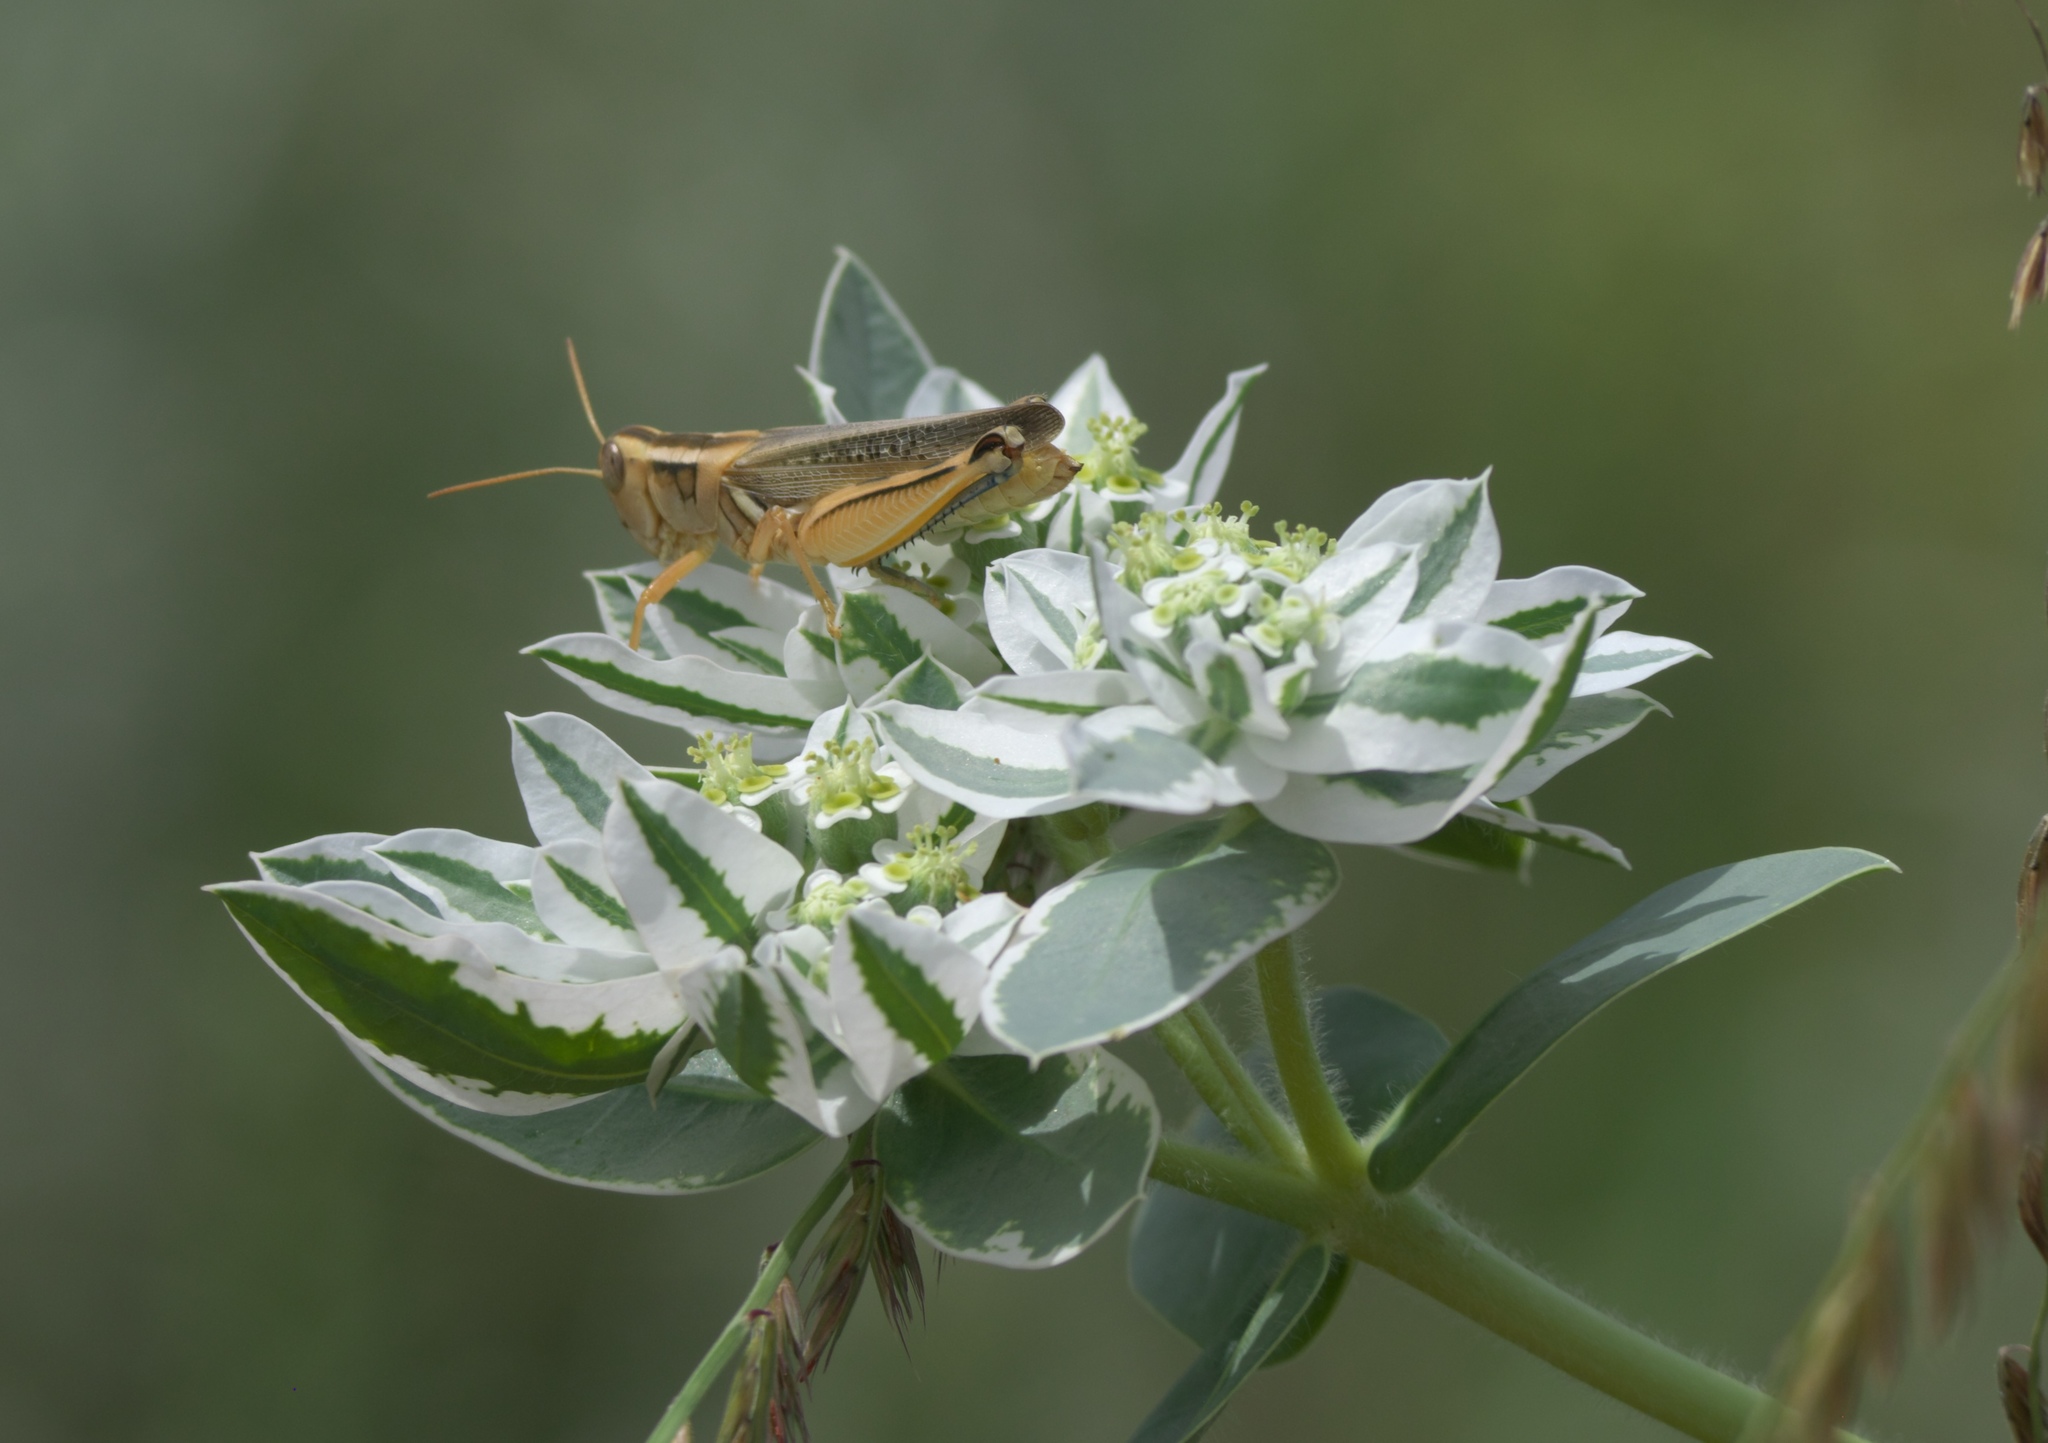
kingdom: Plantae
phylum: Tracheophyta
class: Magnoliopsida
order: Malpighiales
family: Euphorbiaceae
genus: Euphorbia
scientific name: Euphorbia marginata
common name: Ghostweed
